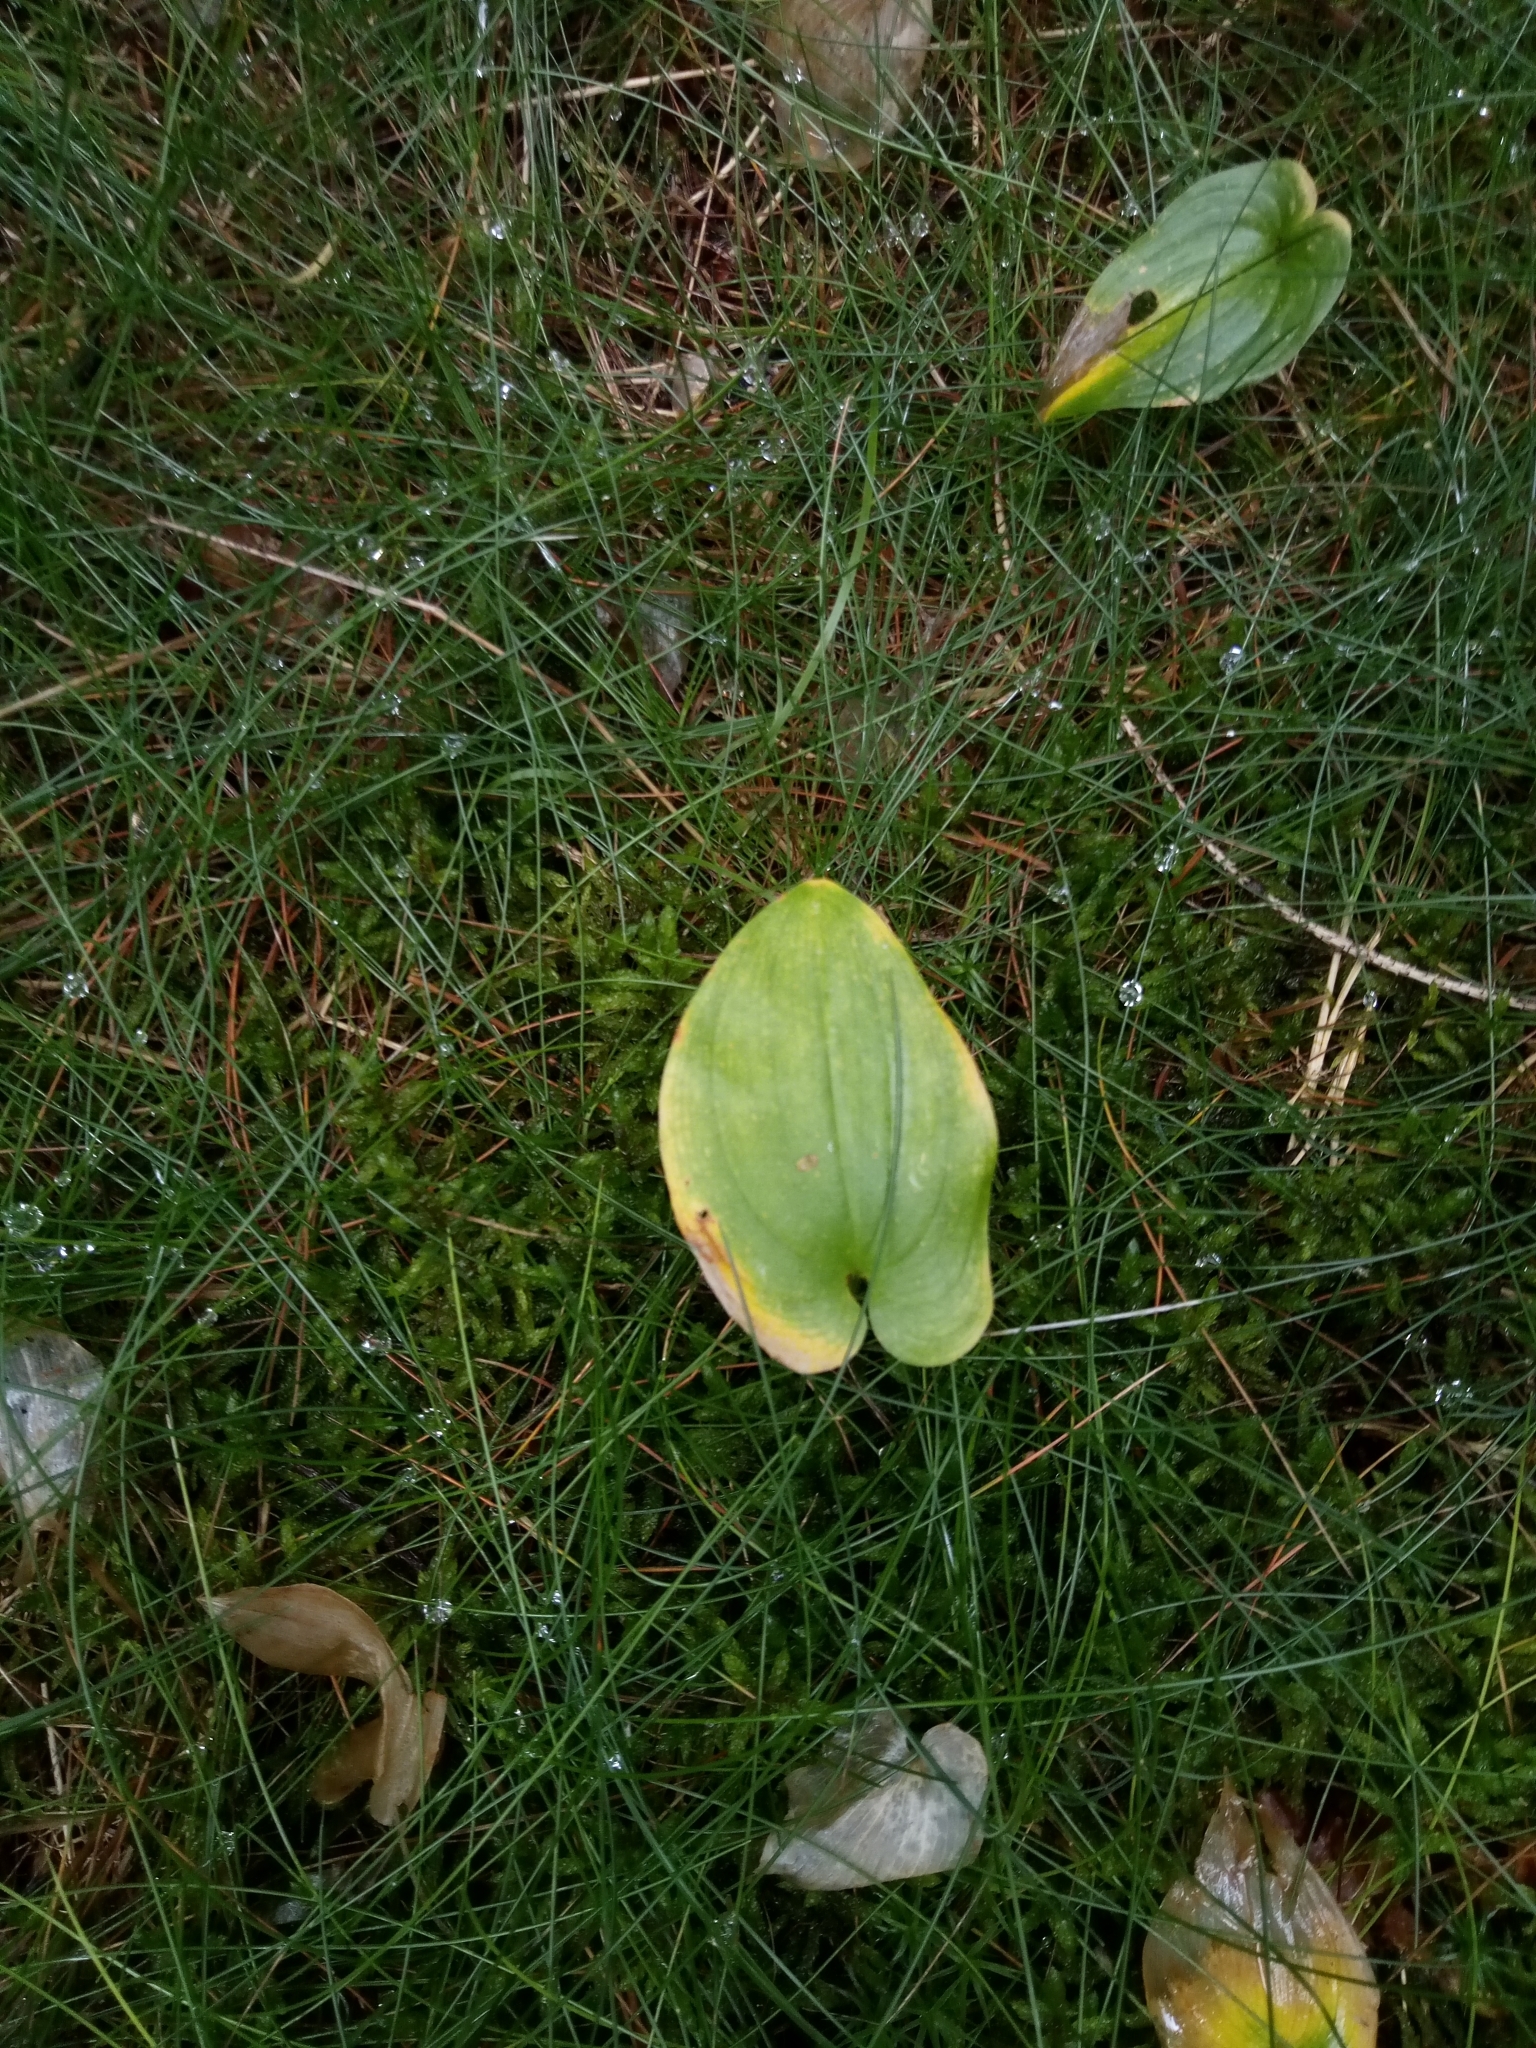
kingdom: Plantae
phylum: Tracheophyta
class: Liliopsida
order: Asparagales
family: Asparagaceae
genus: Maianthemum
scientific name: Maianthemum bifolium
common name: May lily
